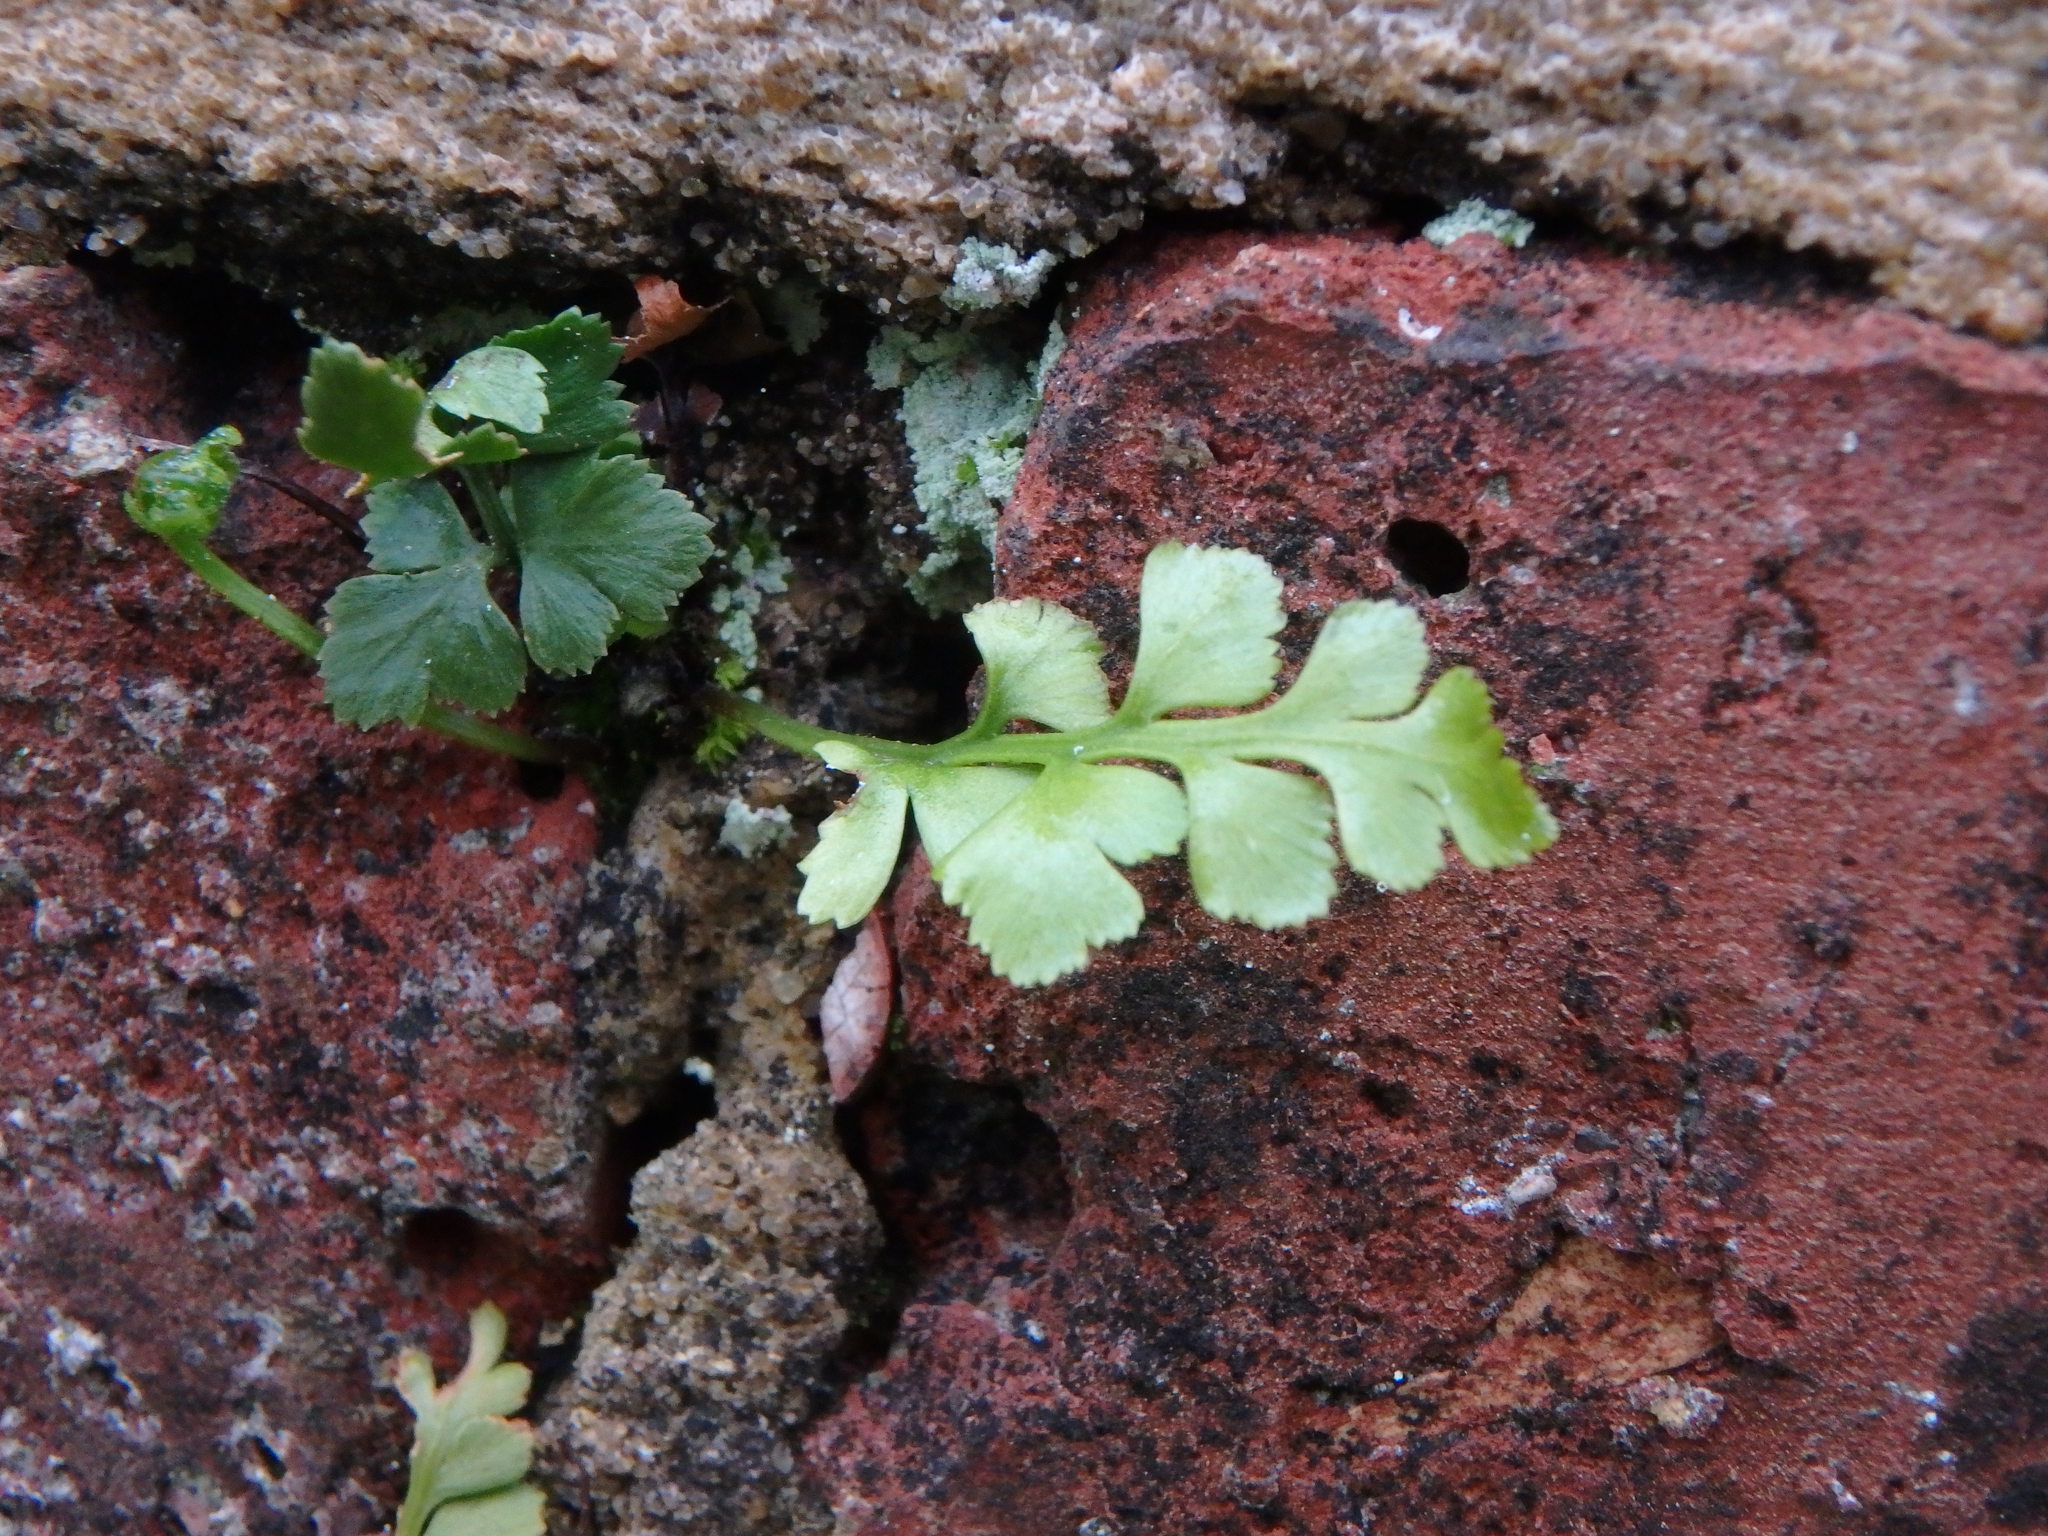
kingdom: Plantae
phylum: Tracheophyta
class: Polypodiopsida
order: Polypodiales
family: Aspleniaceae
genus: Asplenium
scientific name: Asplenium ruta-muraria
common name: Wall-rue
